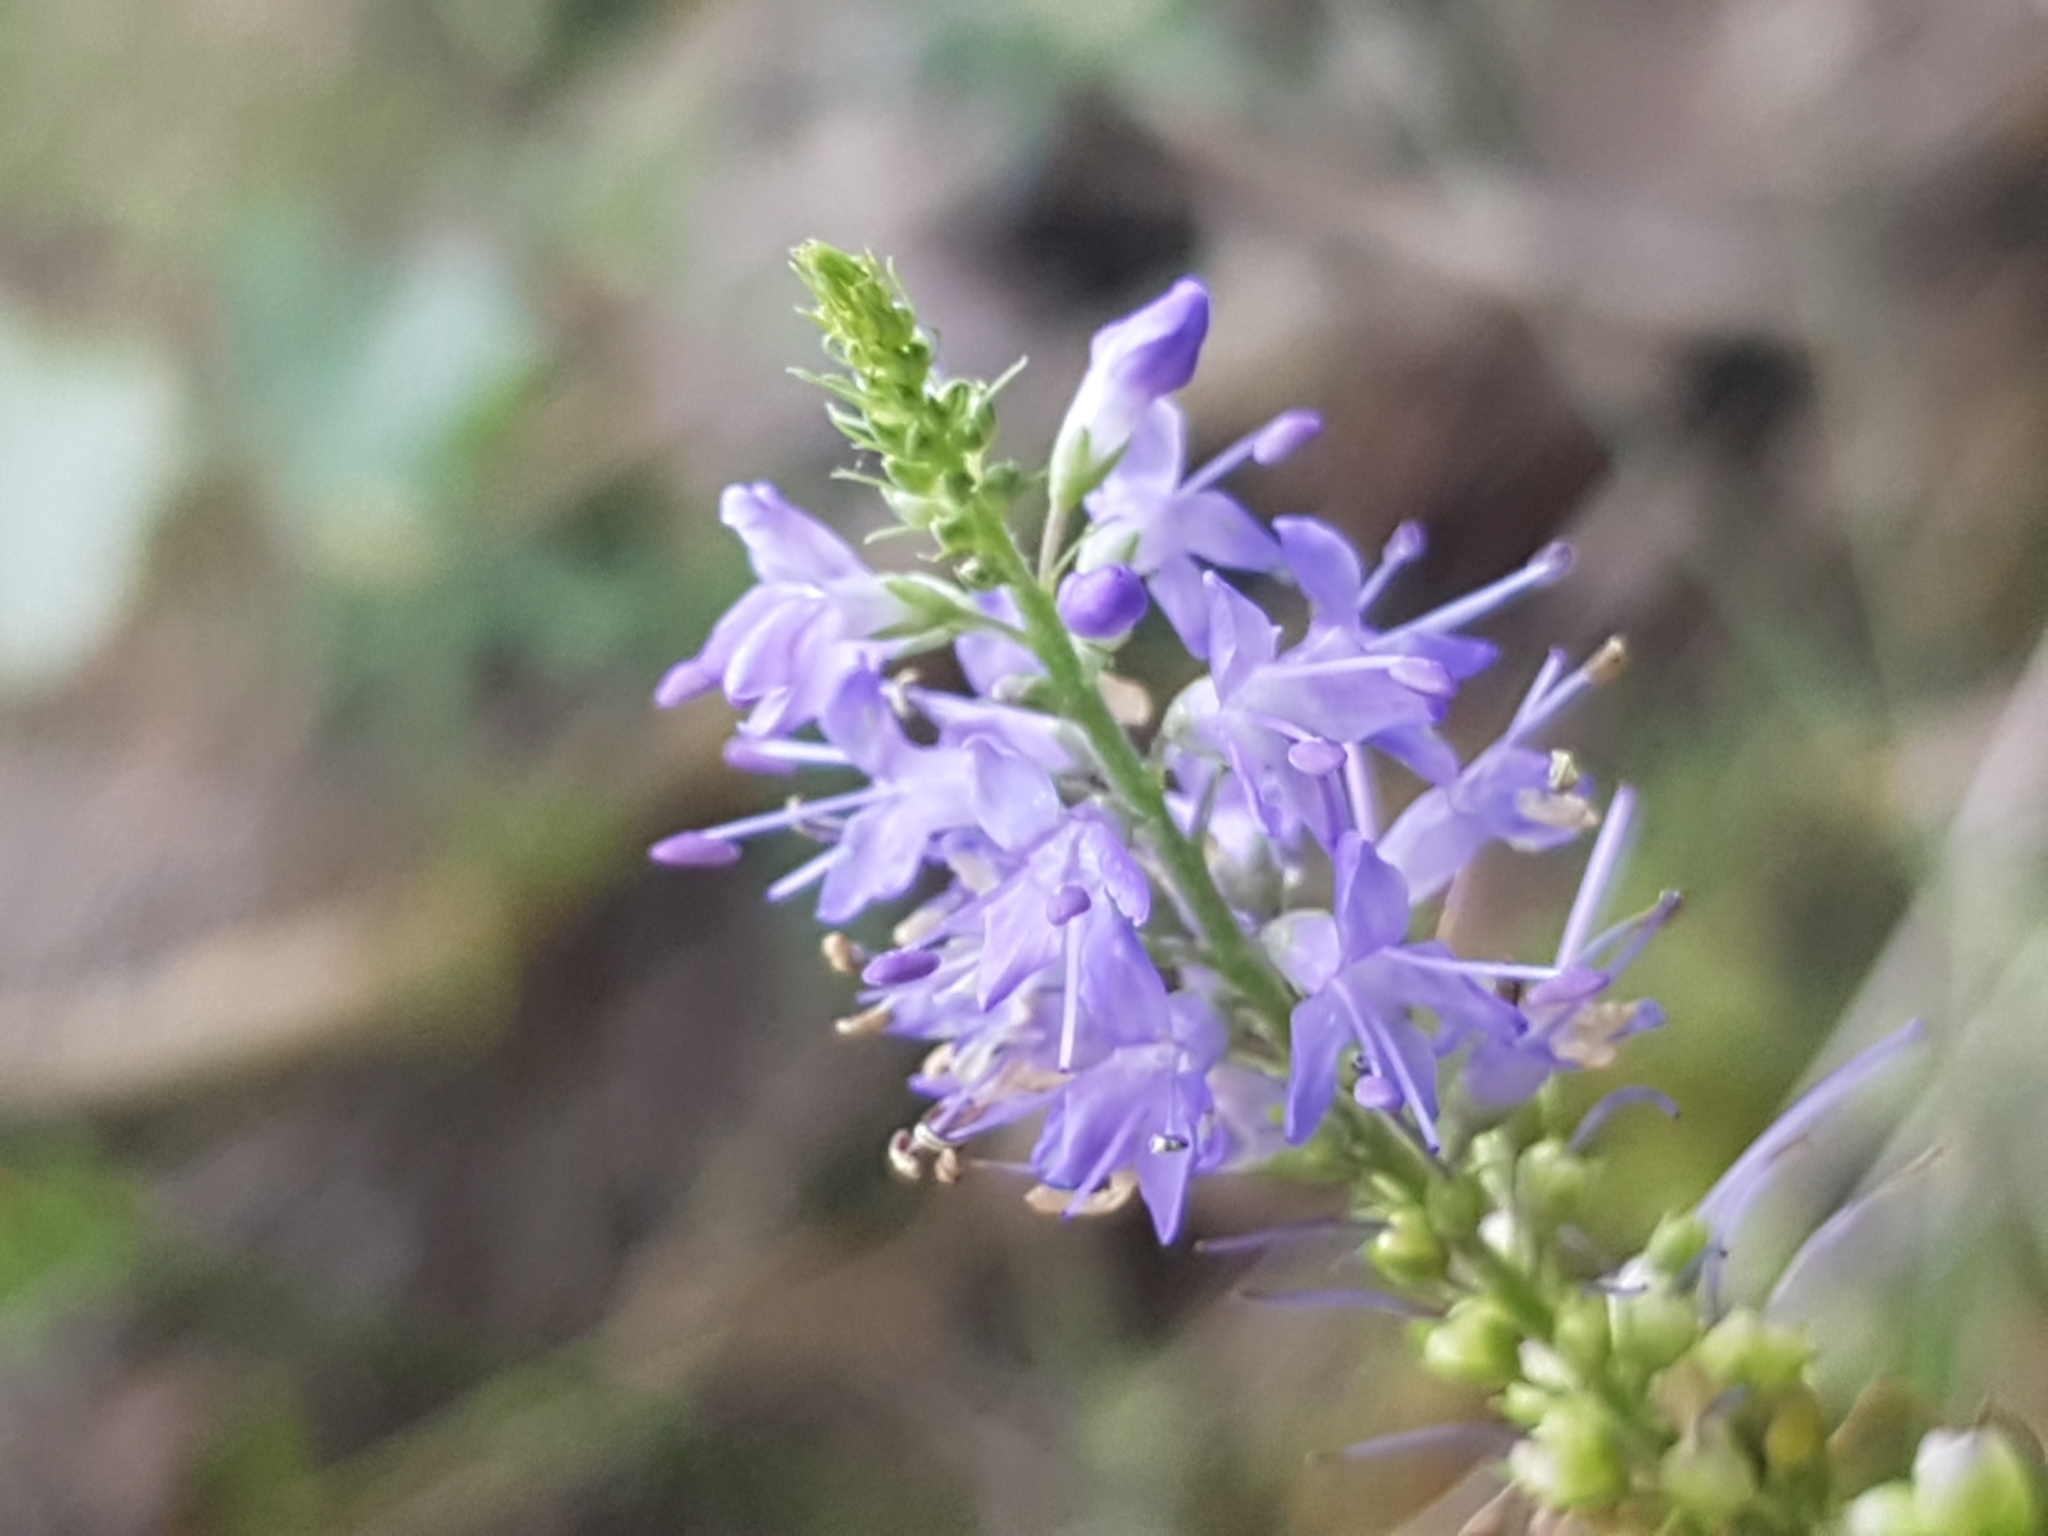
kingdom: Plantae
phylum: Tracheophyta
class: Magnoliopsida
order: Lamiales
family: Plantaginaceae
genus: Veronica
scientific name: Veronica longifolia
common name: Garden speedwell
